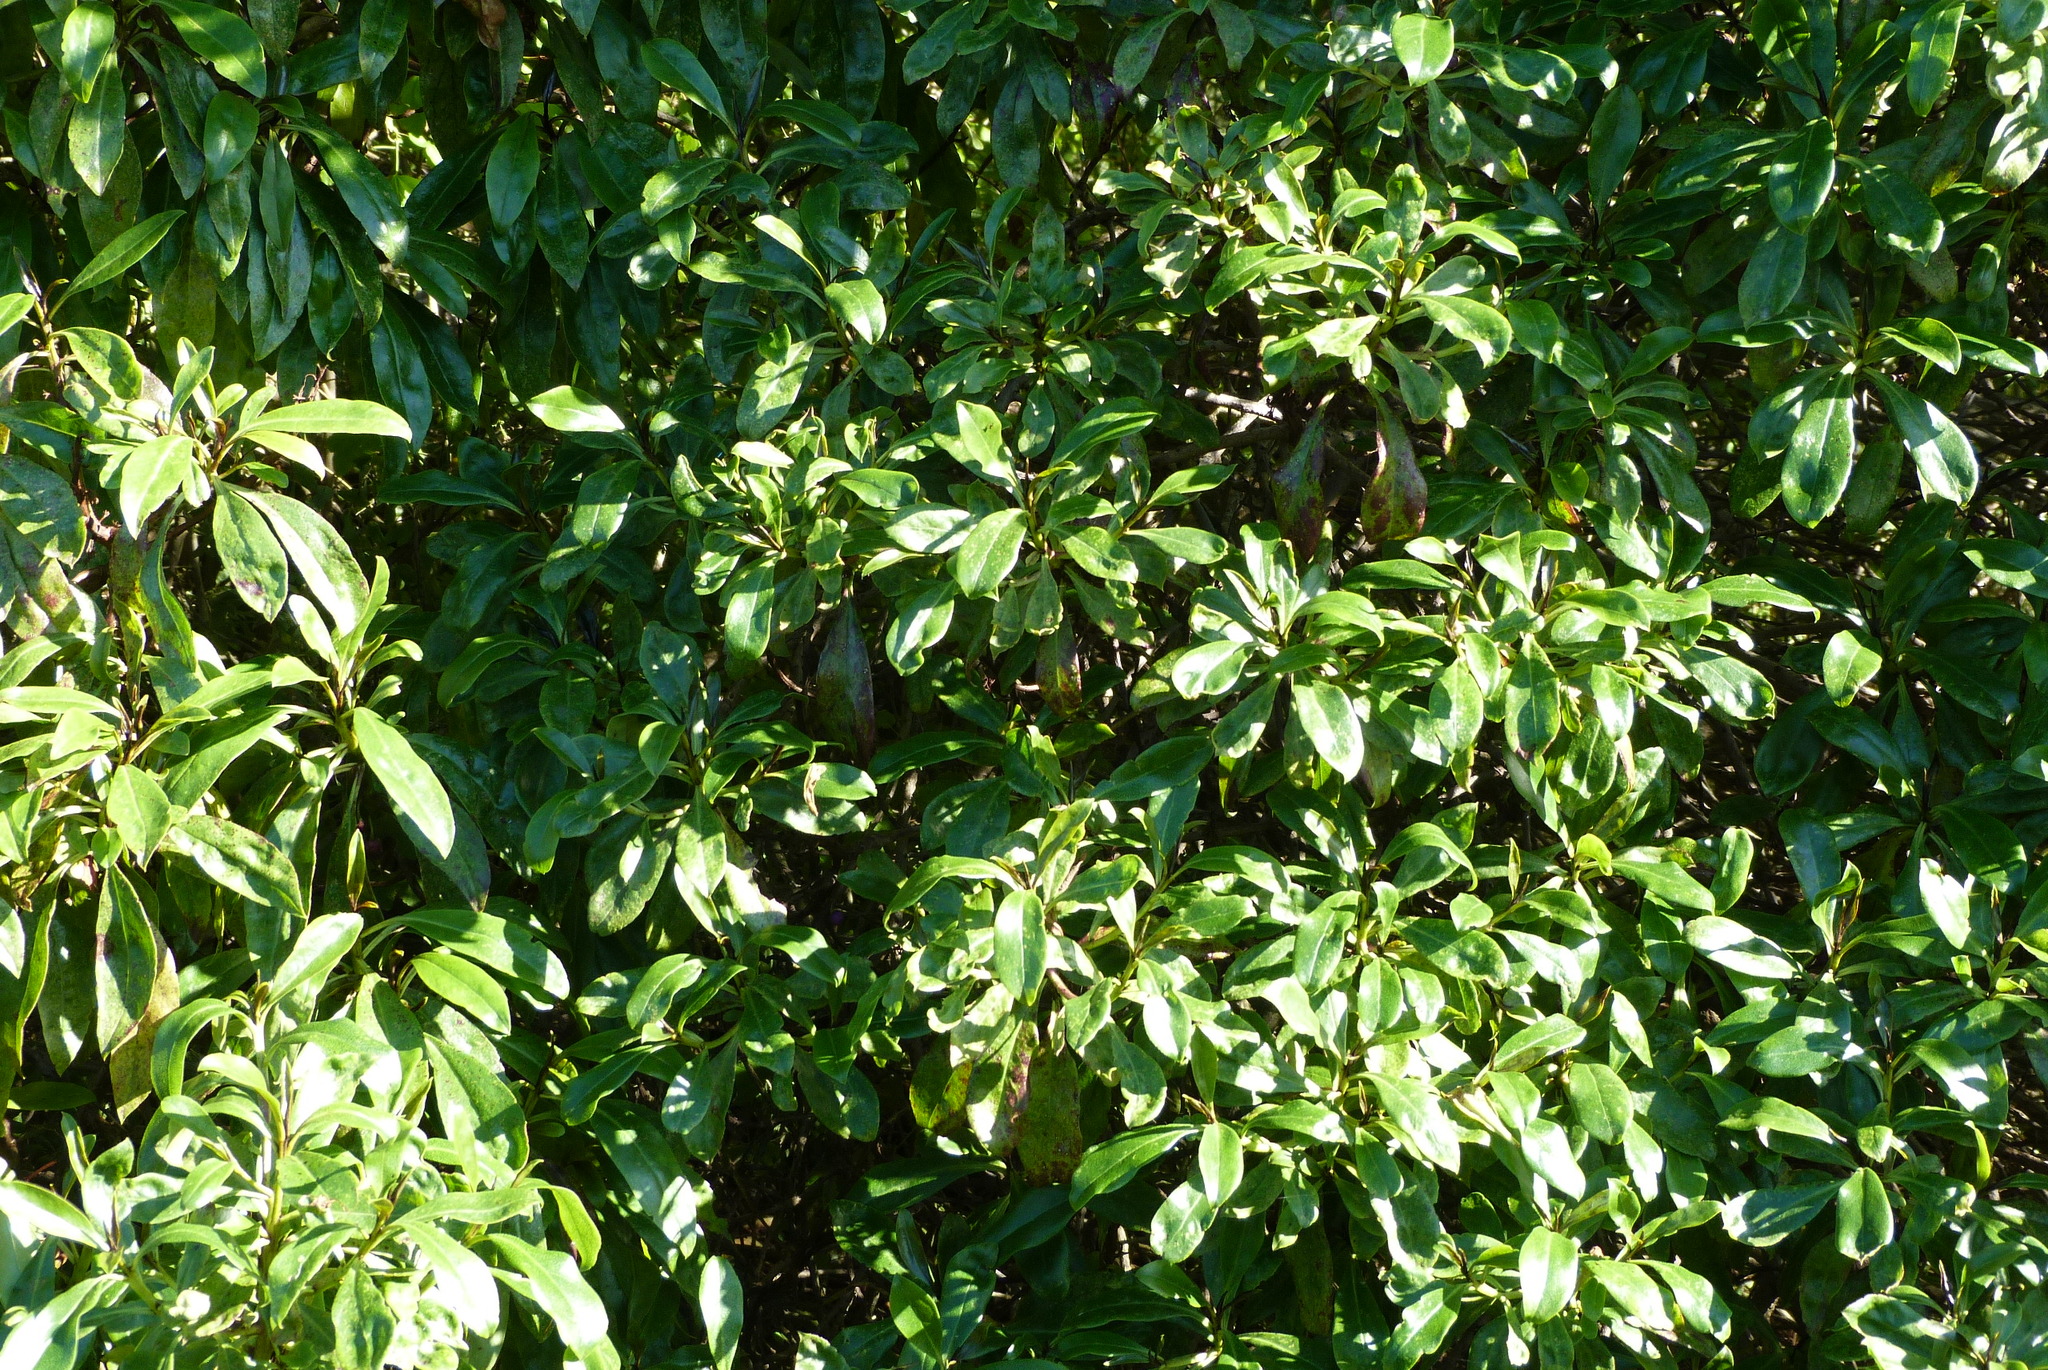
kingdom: Plantae
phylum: Tracheophyta
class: Magnoliopsida
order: Lamiales
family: Scrophulariaceae
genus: Myoporum
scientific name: Myoporum laetum
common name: Ngaio tree
